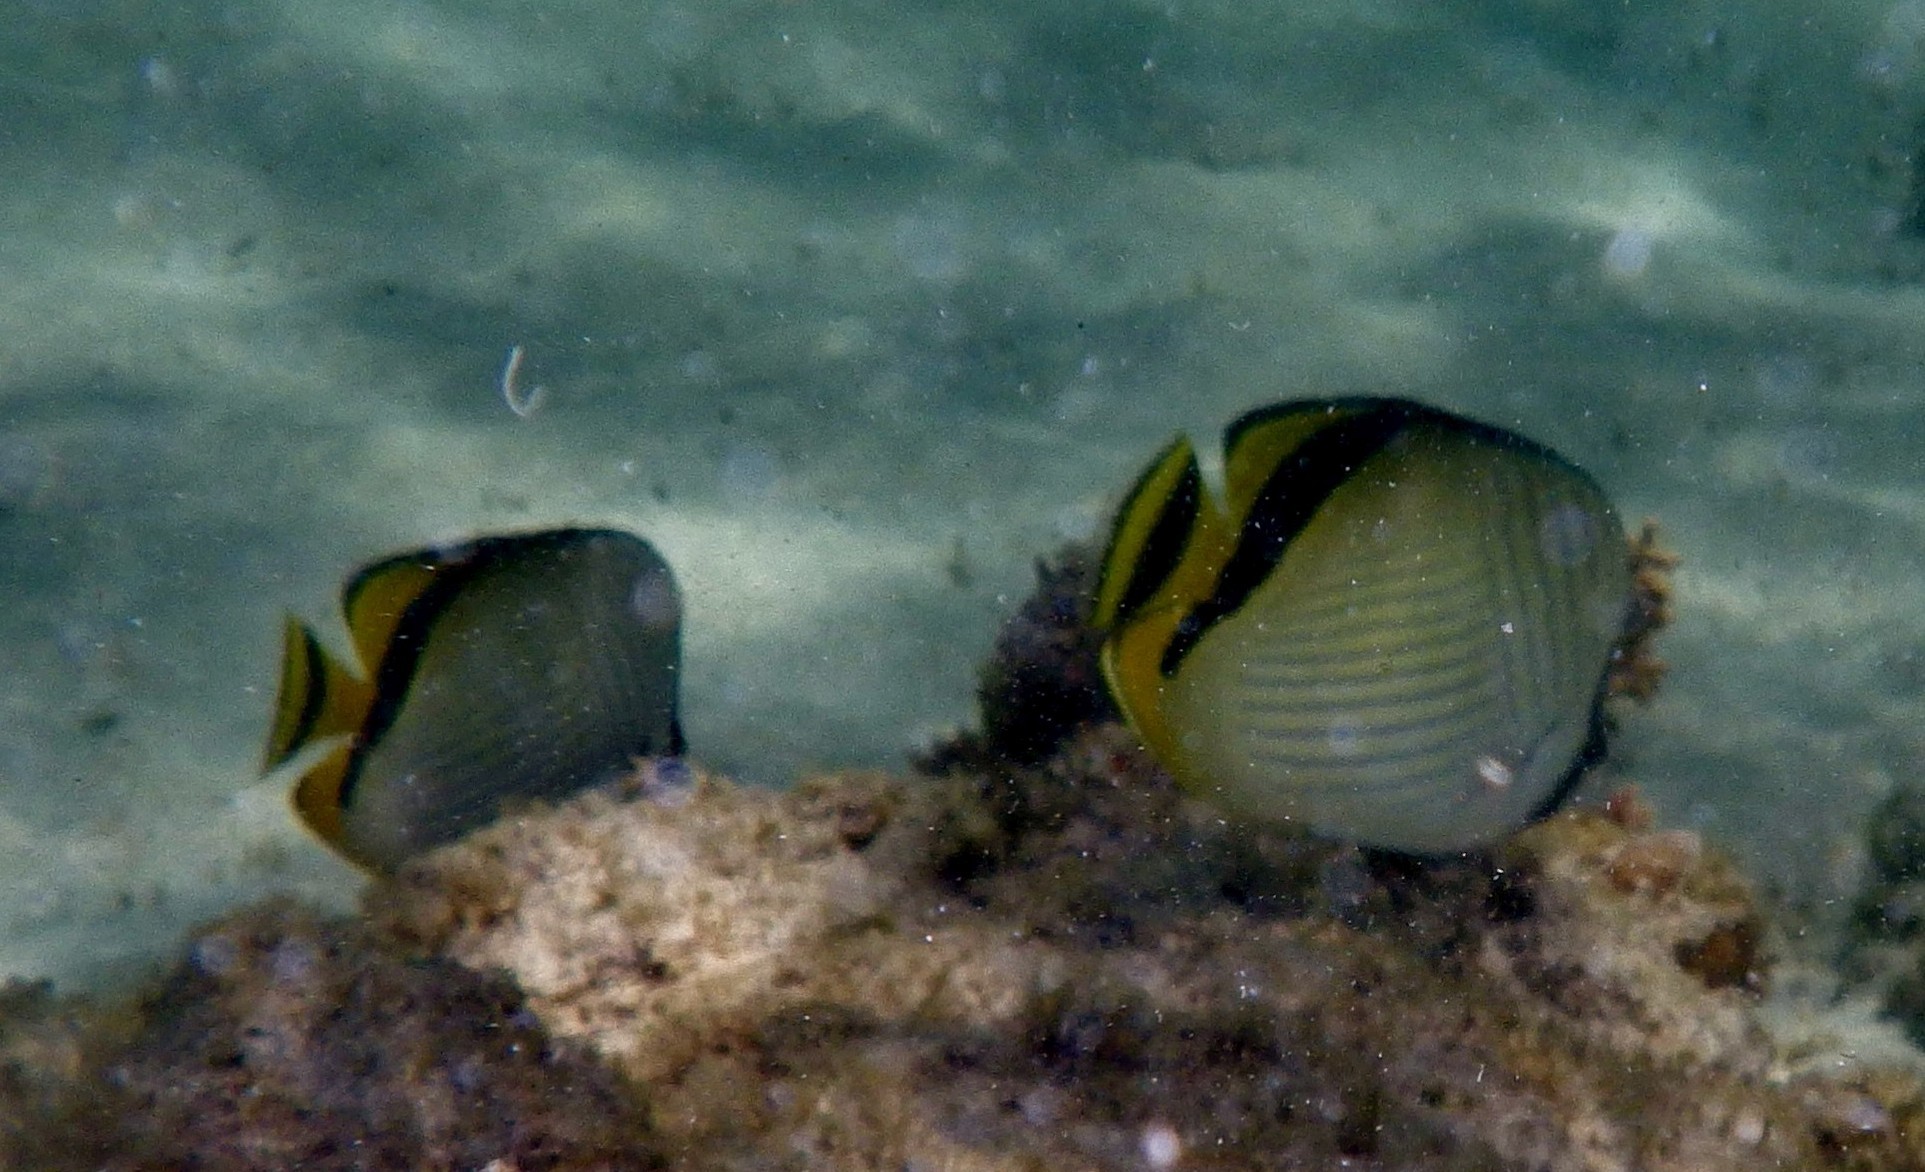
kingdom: Animalia
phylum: Chordata
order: Perciformes
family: Chaetodontidae
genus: Chaetodon
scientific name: Chaetodon vagabundus
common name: Vagabond butterflyfish
